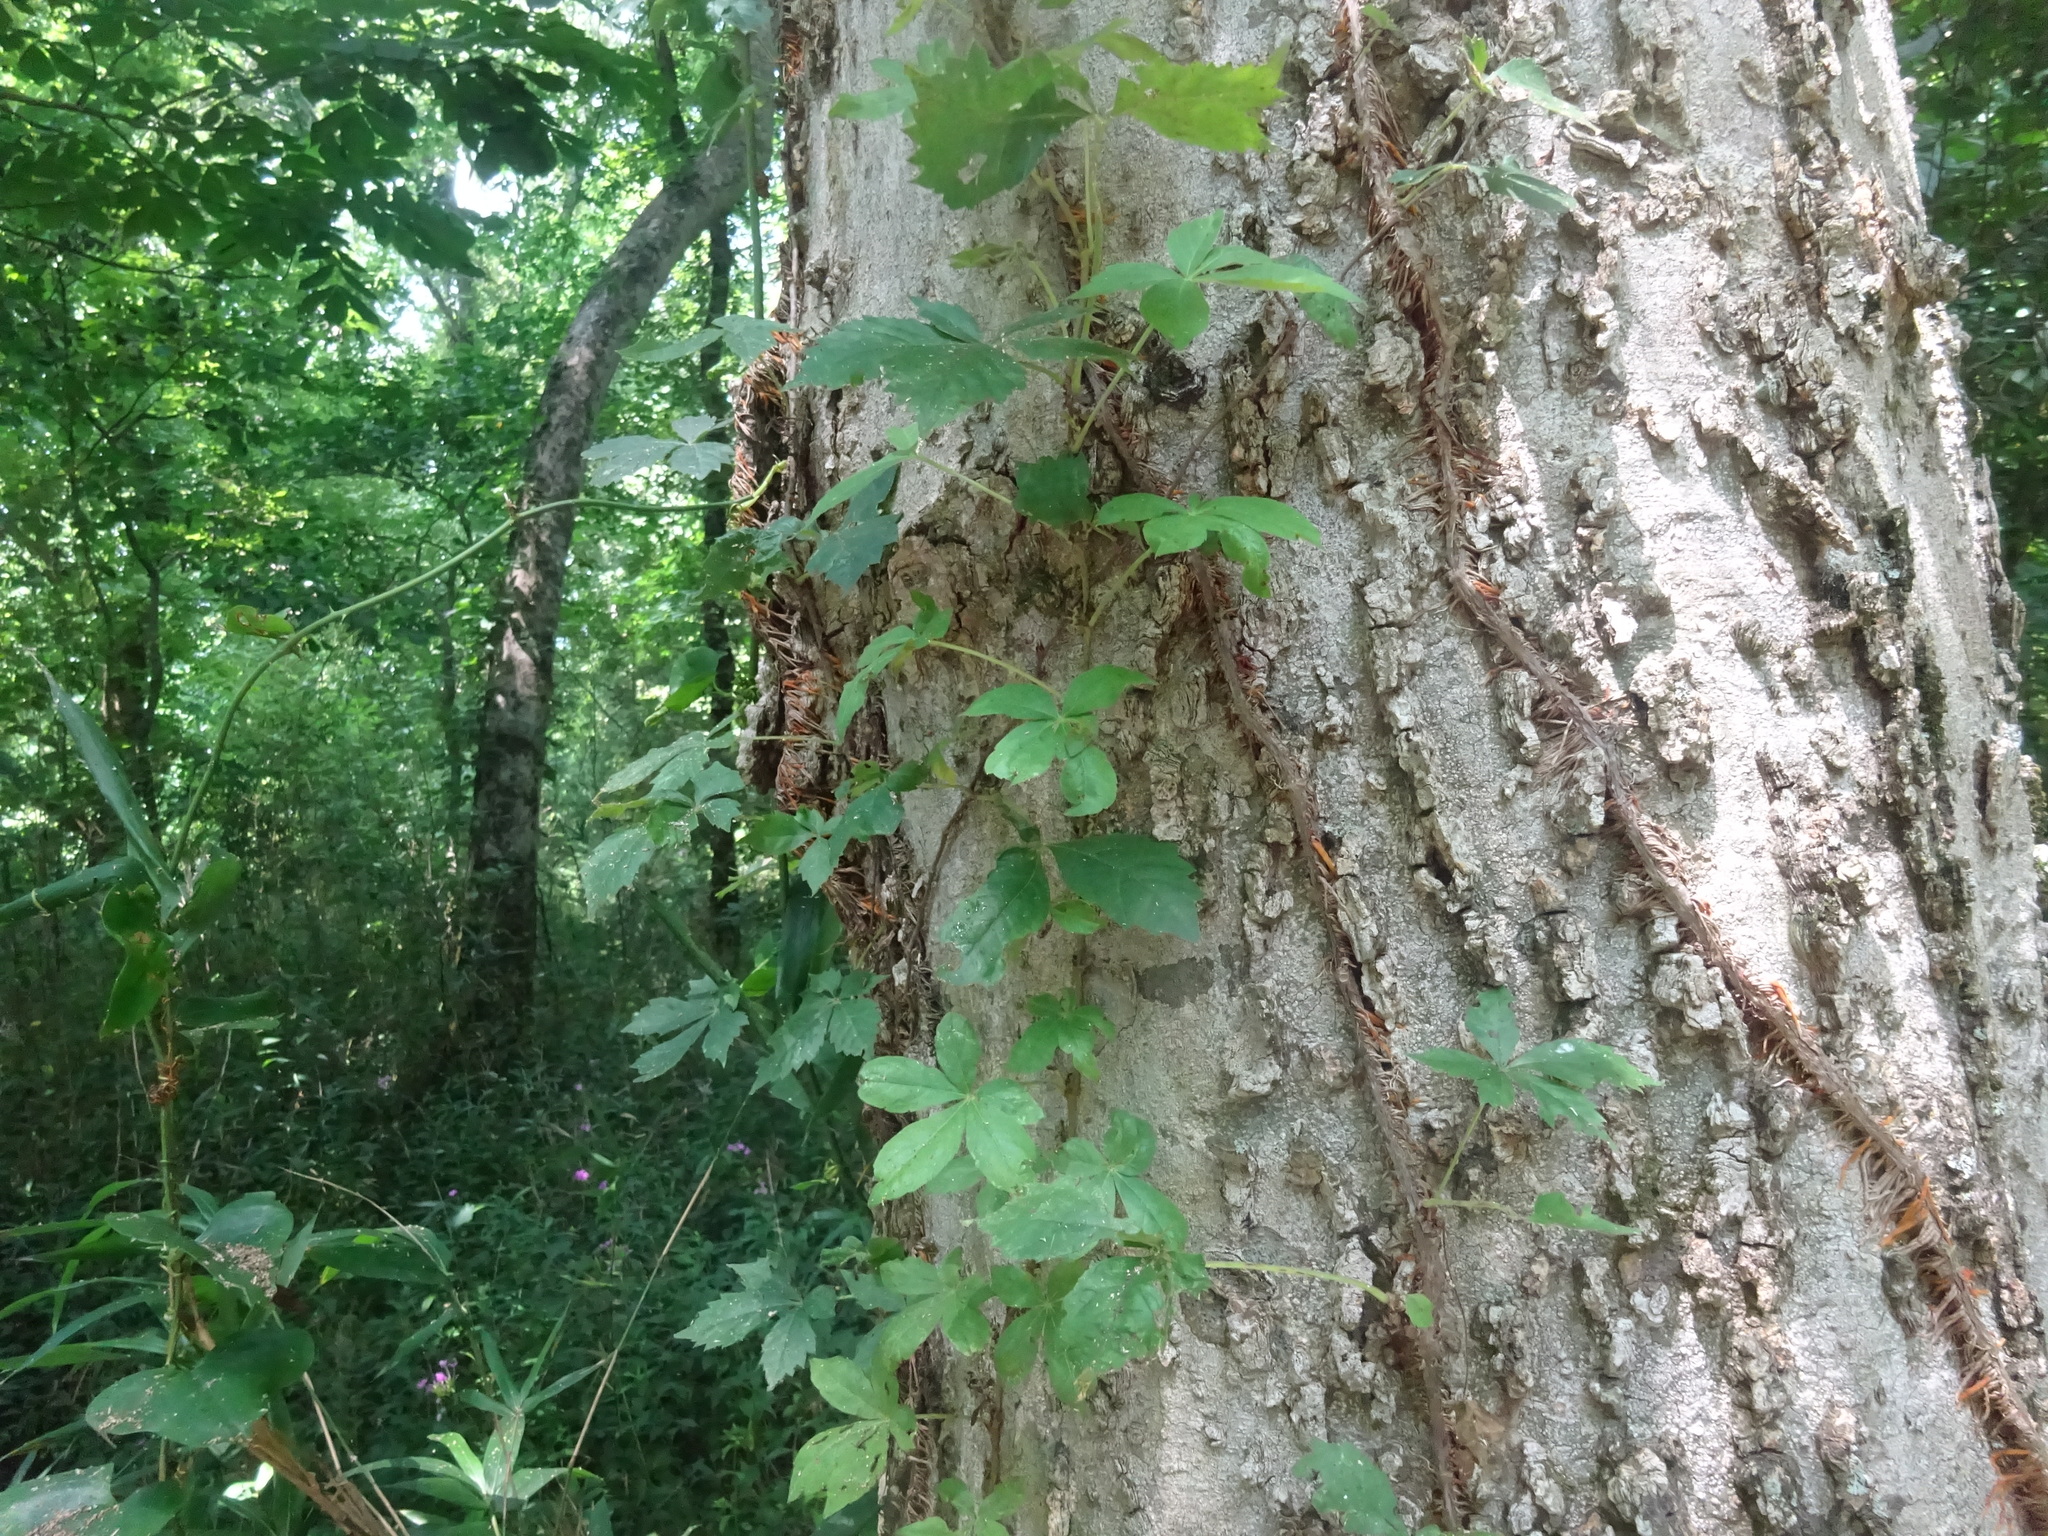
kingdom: Plantae
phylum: Tracheophyta
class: Magnoliopsida
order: Vitales
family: Vitaceae
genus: Parthenocissus
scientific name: Parthenocissus quinquefolia
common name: Virginia-creeper
